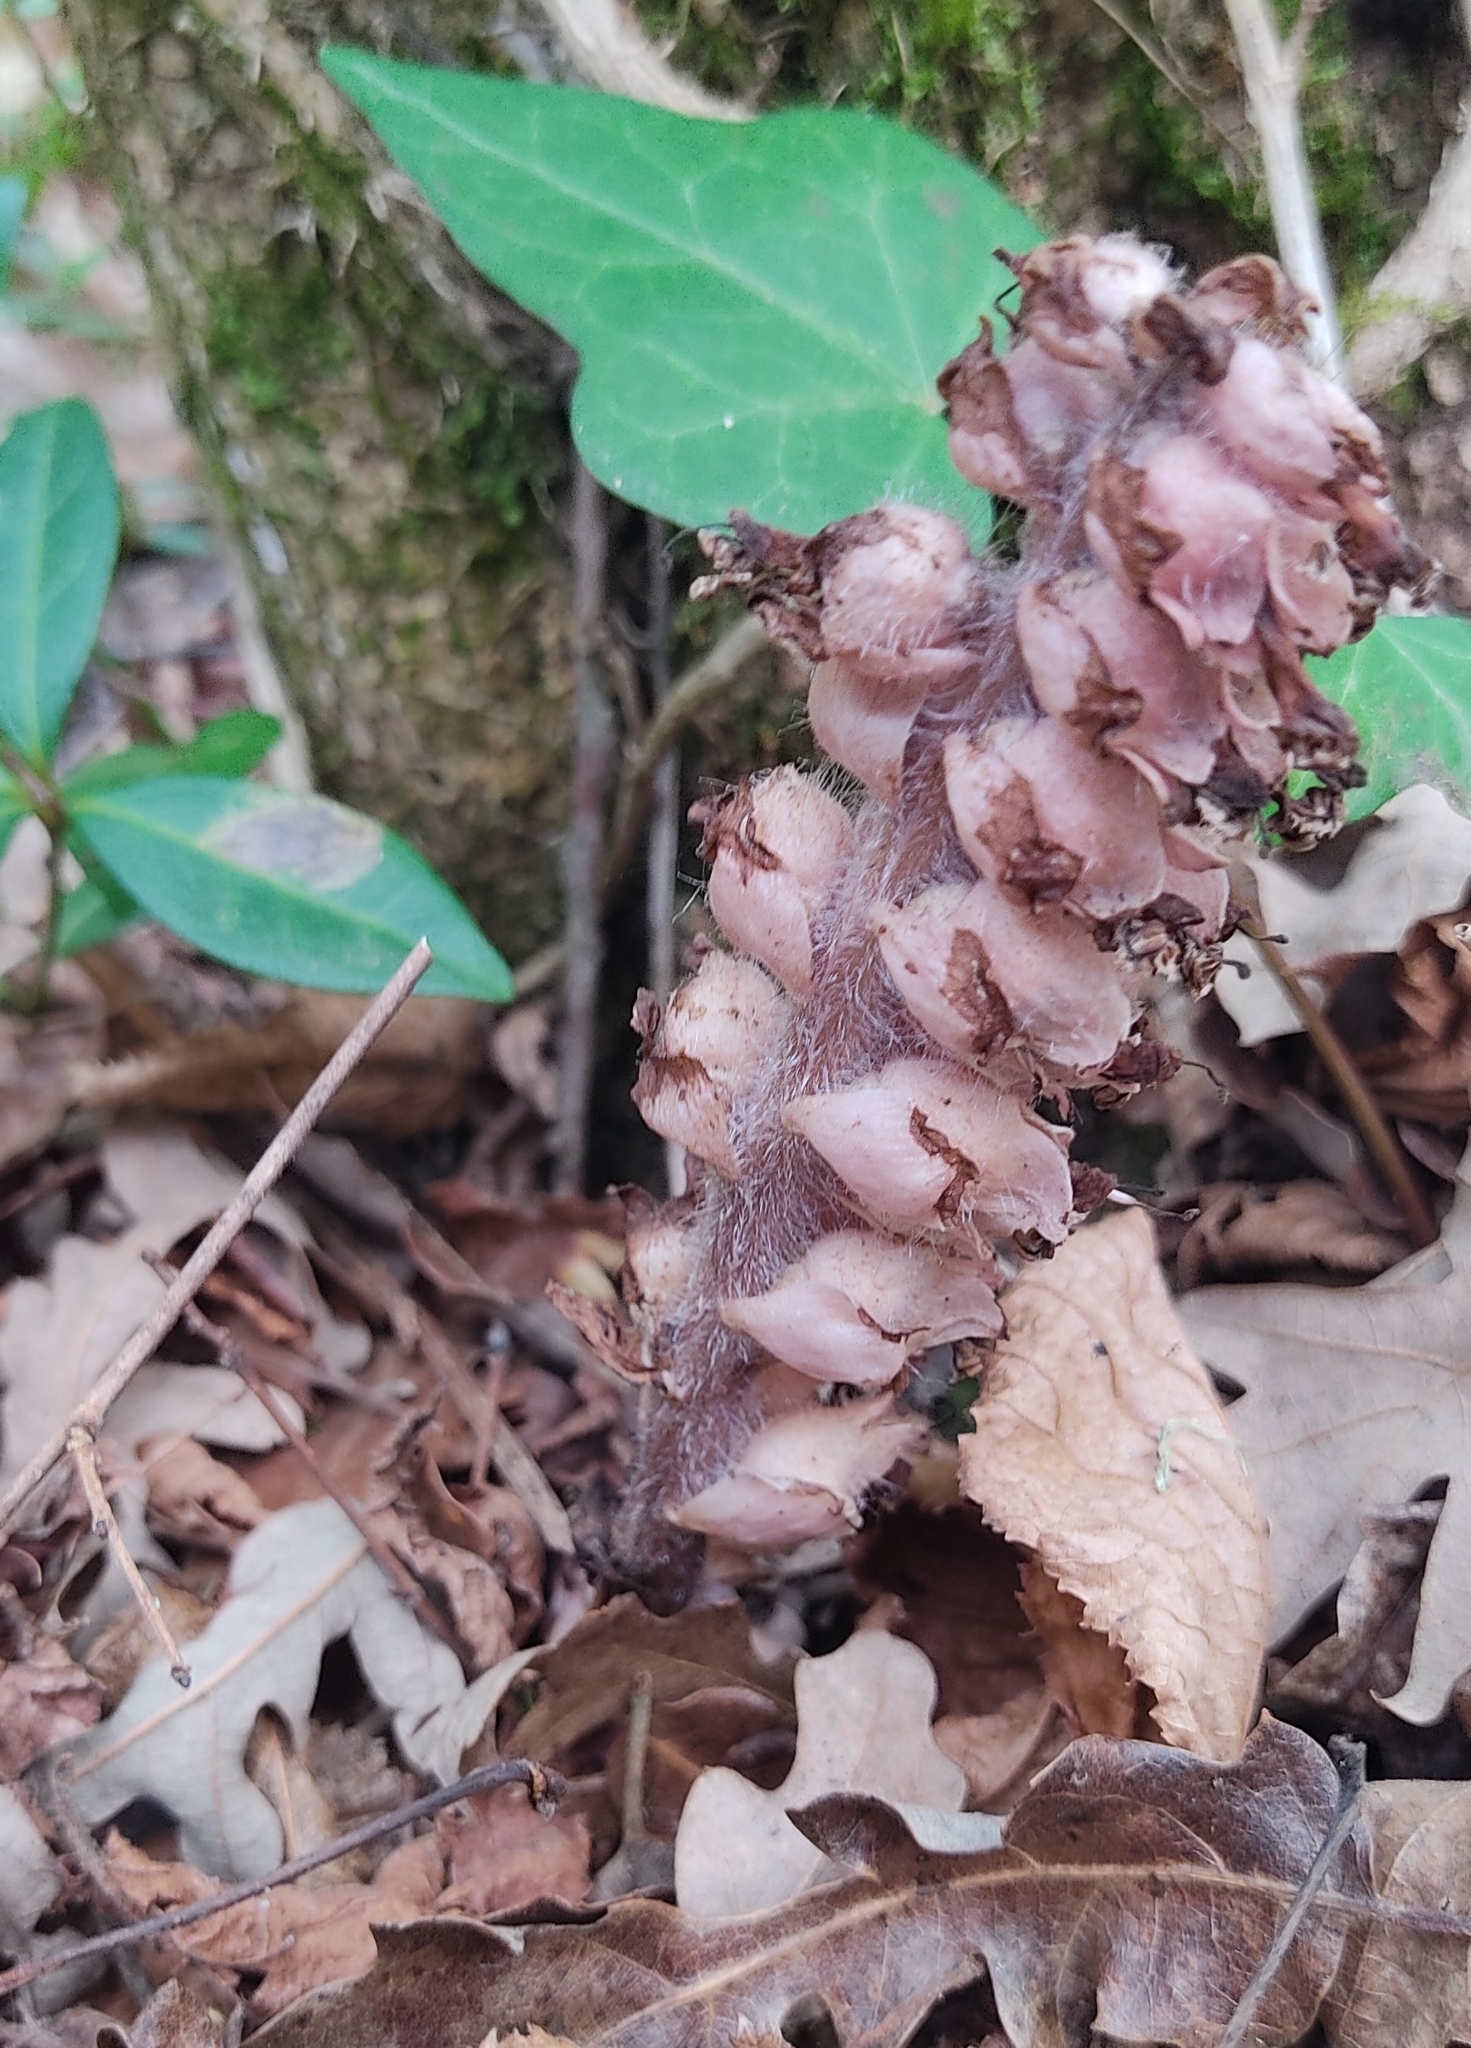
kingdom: Plantae
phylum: Tracheophyta
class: Magnoliopsida
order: Lamiales
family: Orobanchaceae
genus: Lathraea
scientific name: Lathraea squamaria
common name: Toothwort
